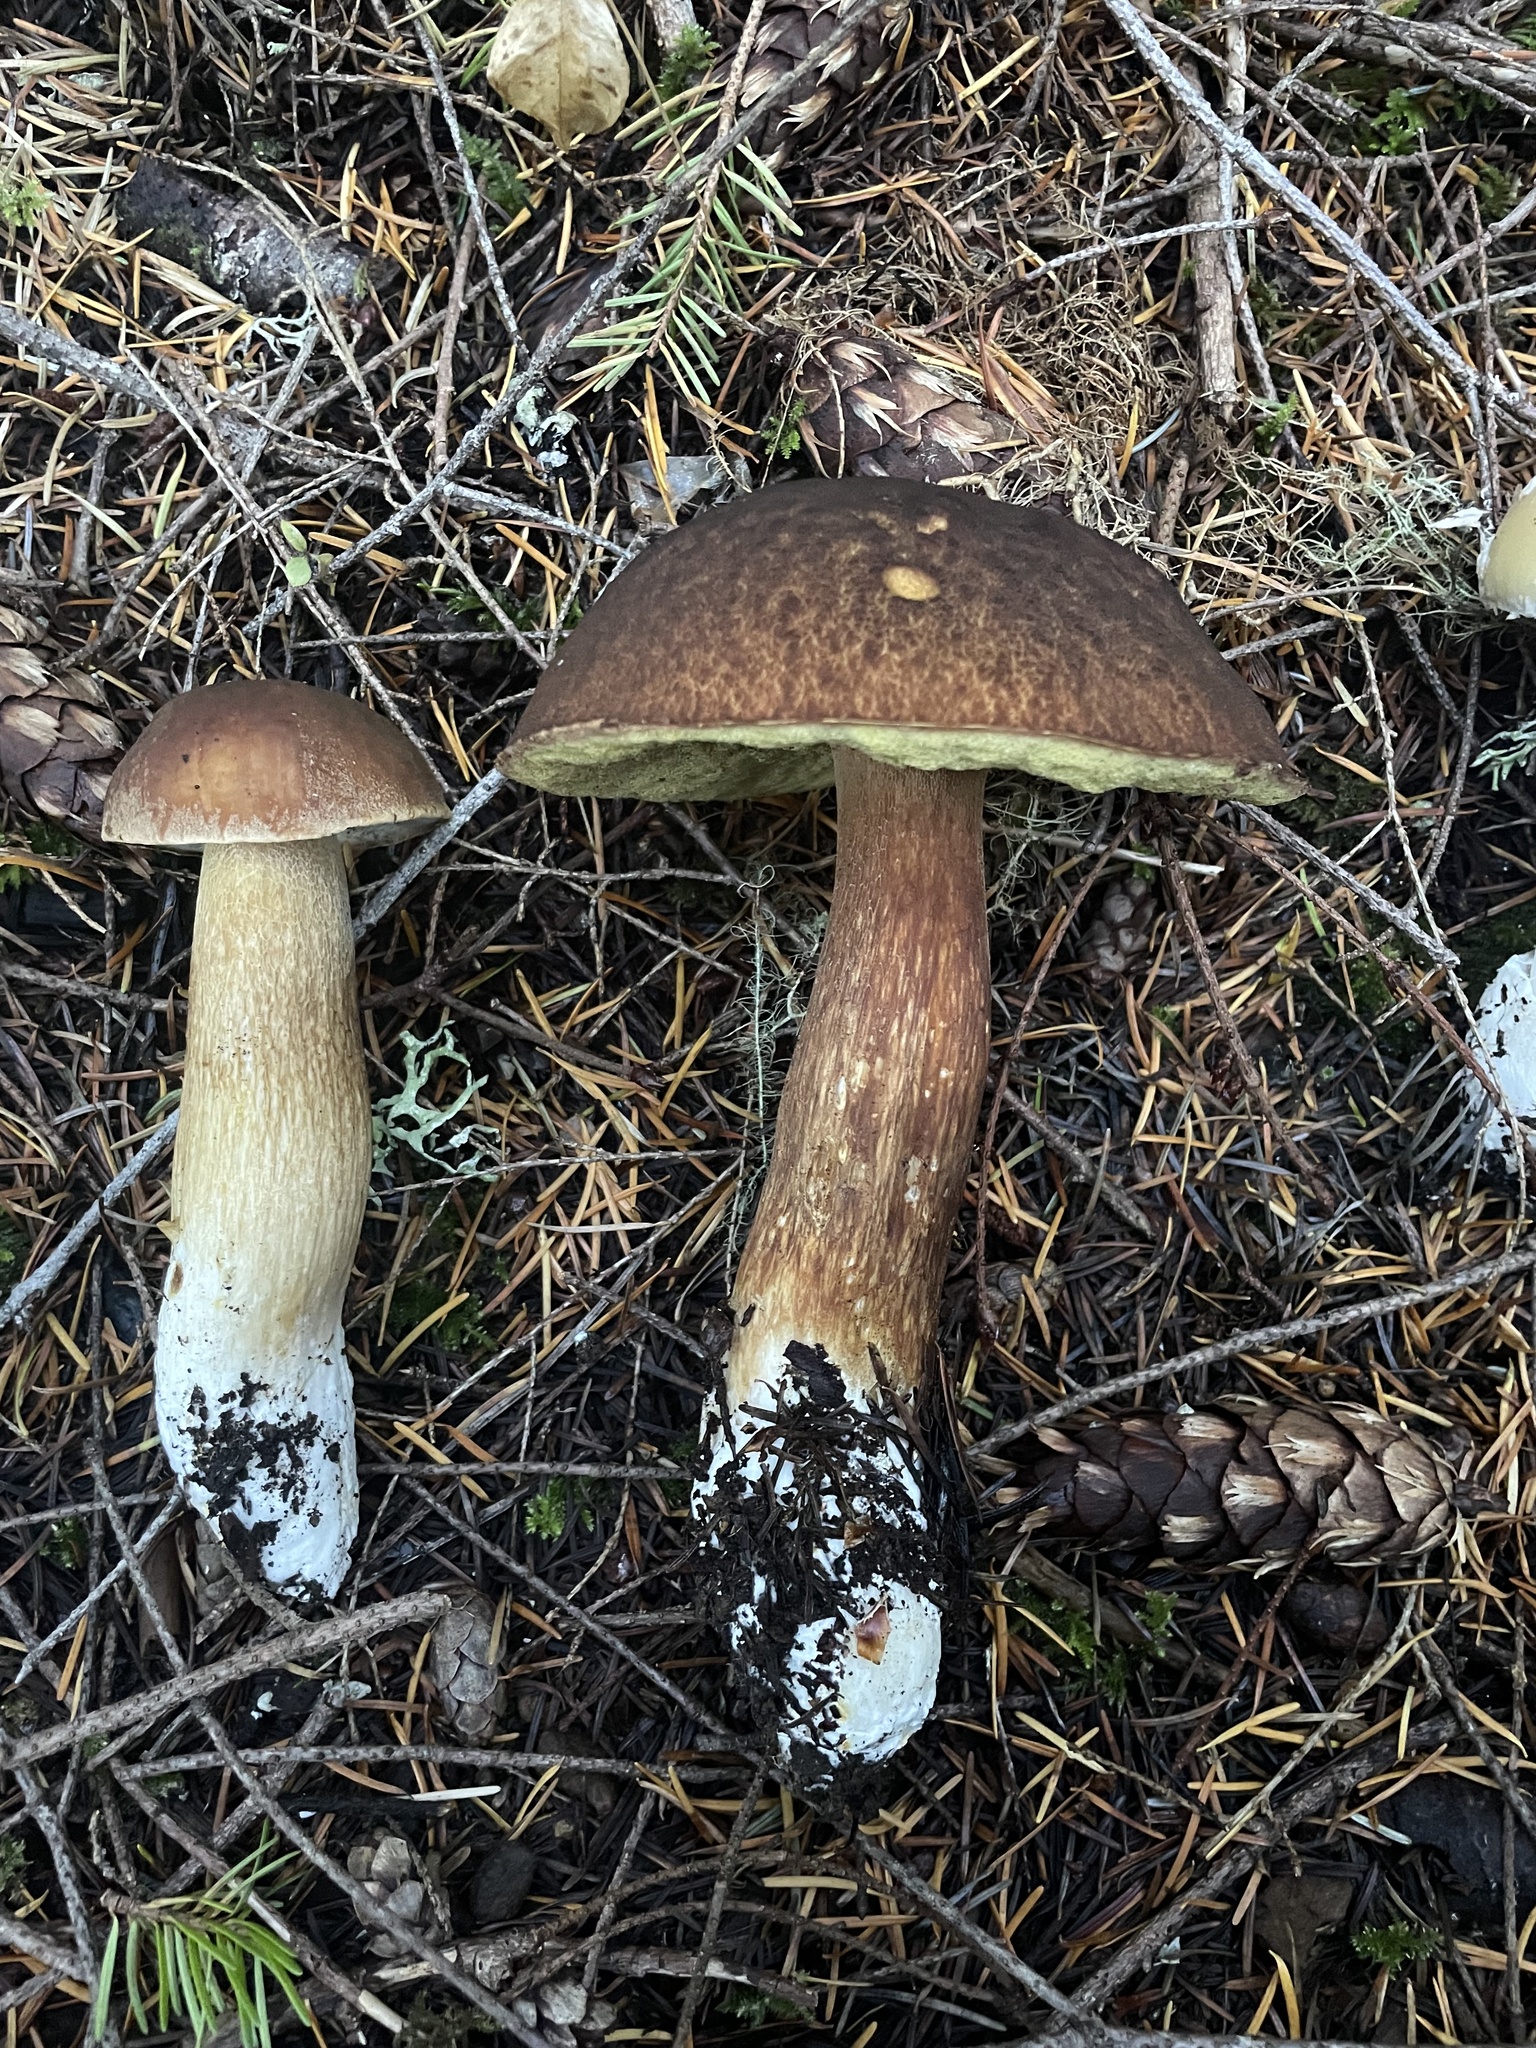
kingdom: Fungi
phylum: Basidiomycota
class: Agaricomycetes
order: Boletales
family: Boletaceae
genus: Boletus
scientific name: Boletus fibrillosus
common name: Fib king
